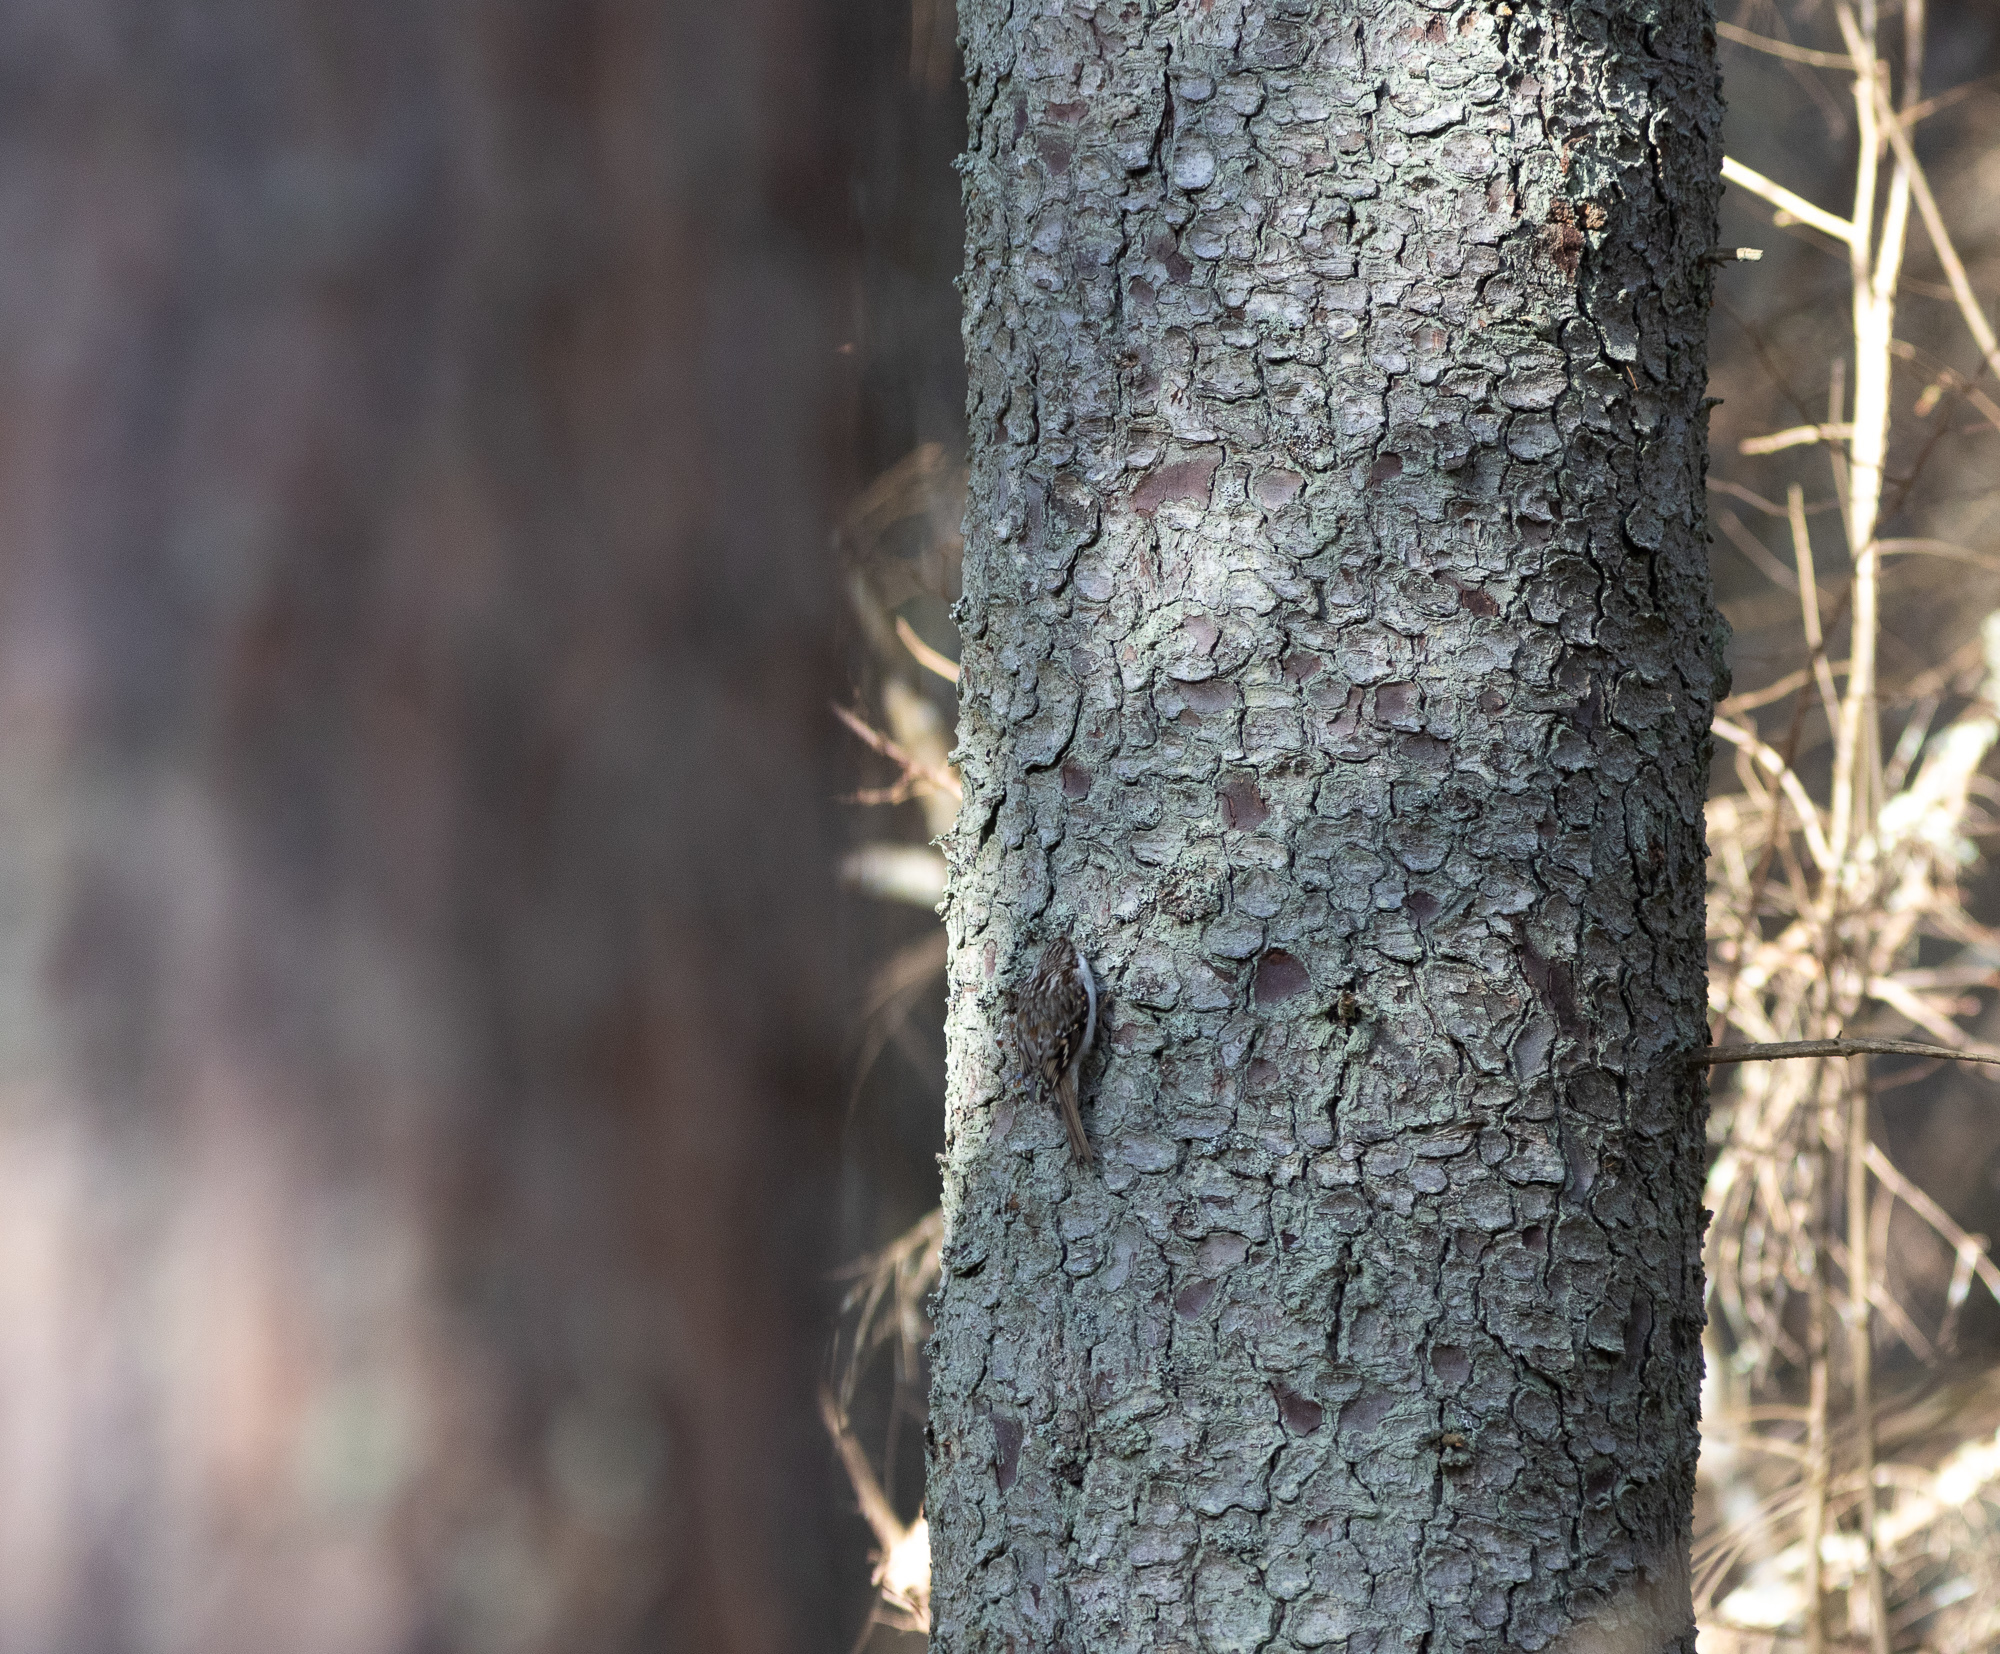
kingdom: Animalia
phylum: Chordata
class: Aves
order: Passeriformes
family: Certhiidae
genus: Certhia
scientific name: Certhia familiaris
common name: Eurasian treecreeper
